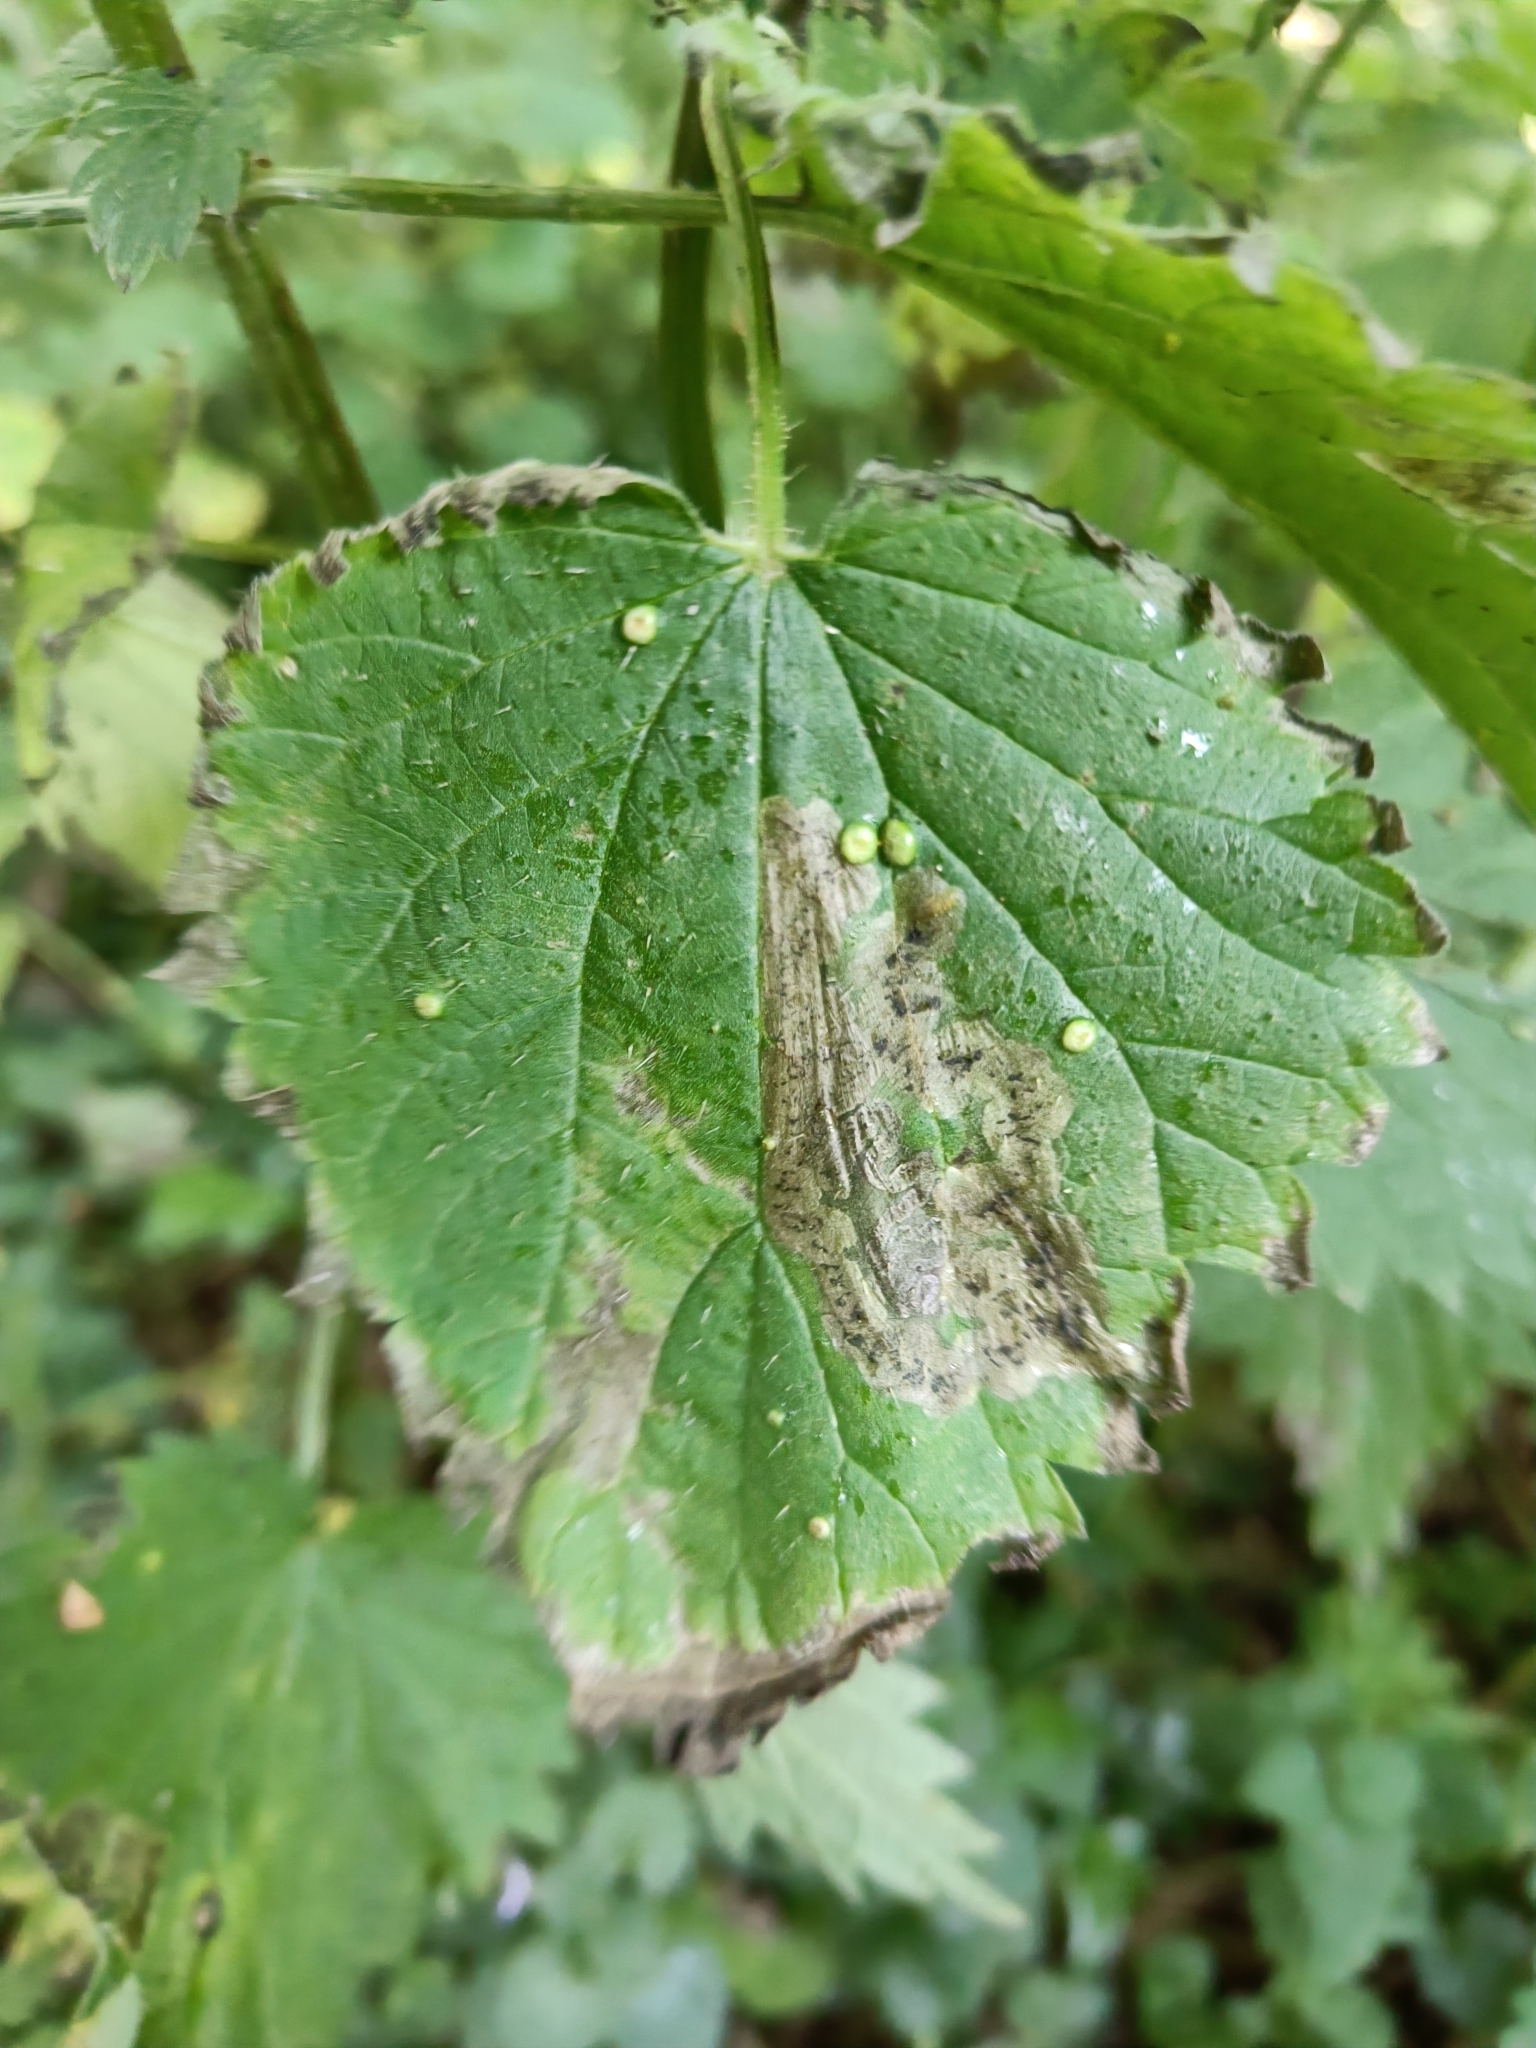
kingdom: Animalia
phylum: Arthropoda
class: Insecta
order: Diptera
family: Agromyzidae
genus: Agromyza
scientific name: Agromyza anthracina
